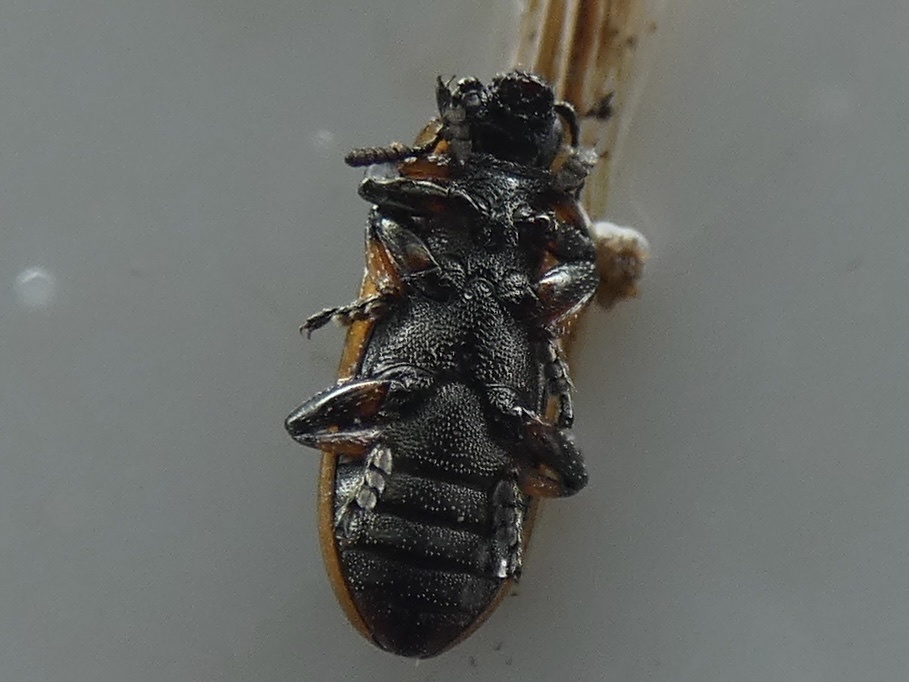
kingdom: Animalia
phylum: Arthropoda
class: Insecta
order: Coleoptera
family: Chrysomelidae
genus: Prasocuris
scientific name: Prasocuris phellandrii
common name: Leaf beetle
